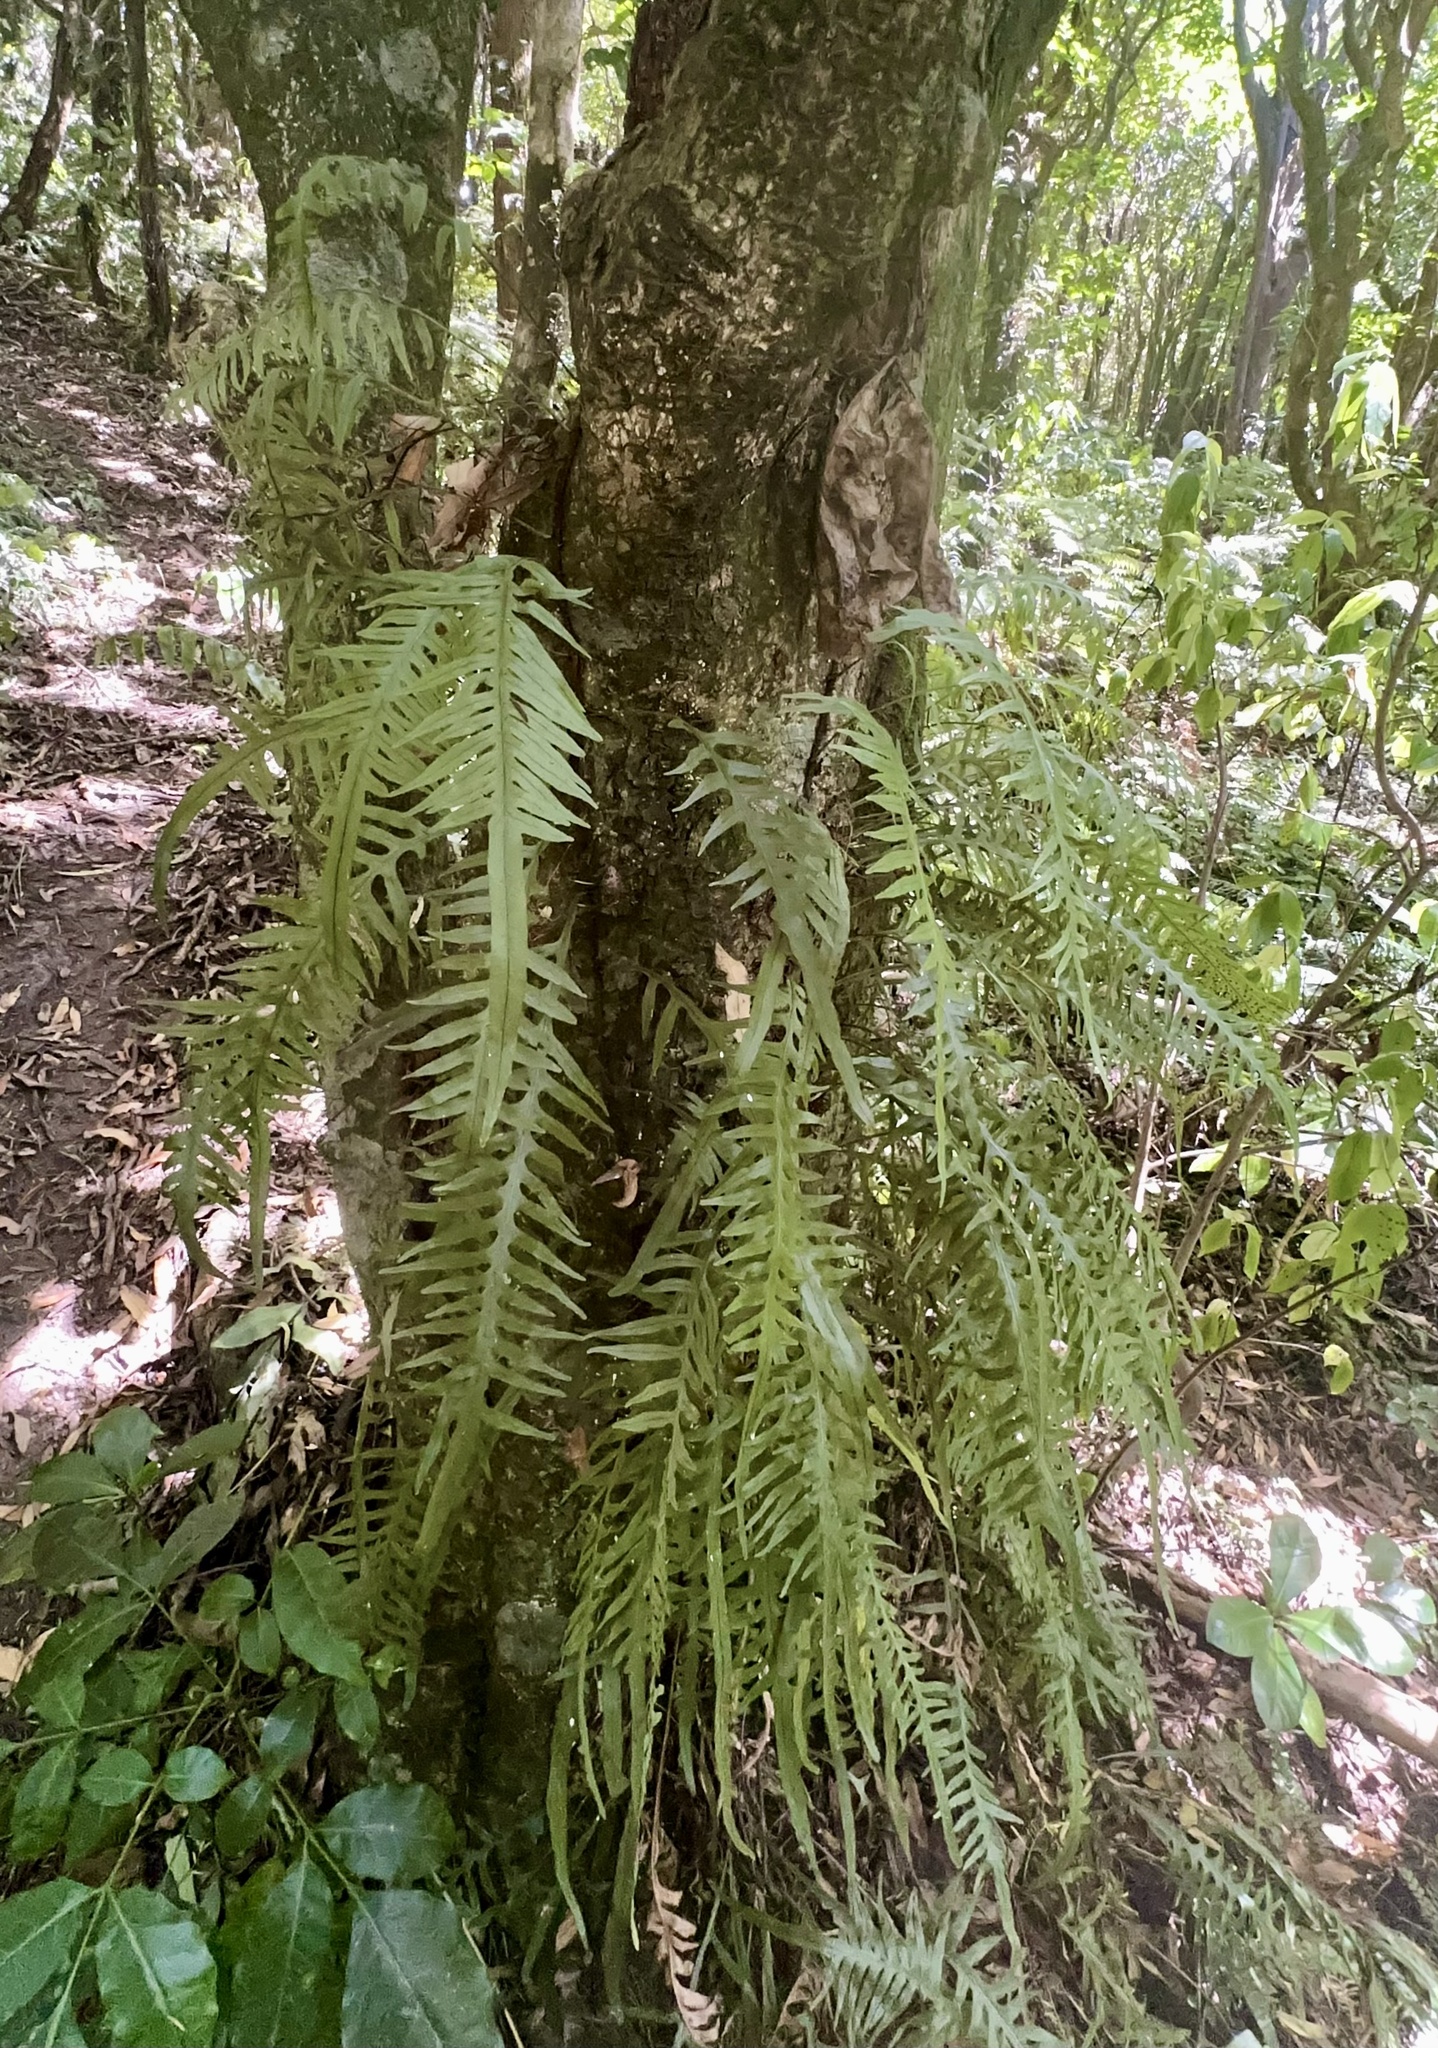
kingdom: Plantae
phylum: Tracheophyta
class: Polypodiopsida
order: Polypodiales
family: Polypodiaceae
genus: Lecanopteris
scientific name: Lecanopteris scandens
